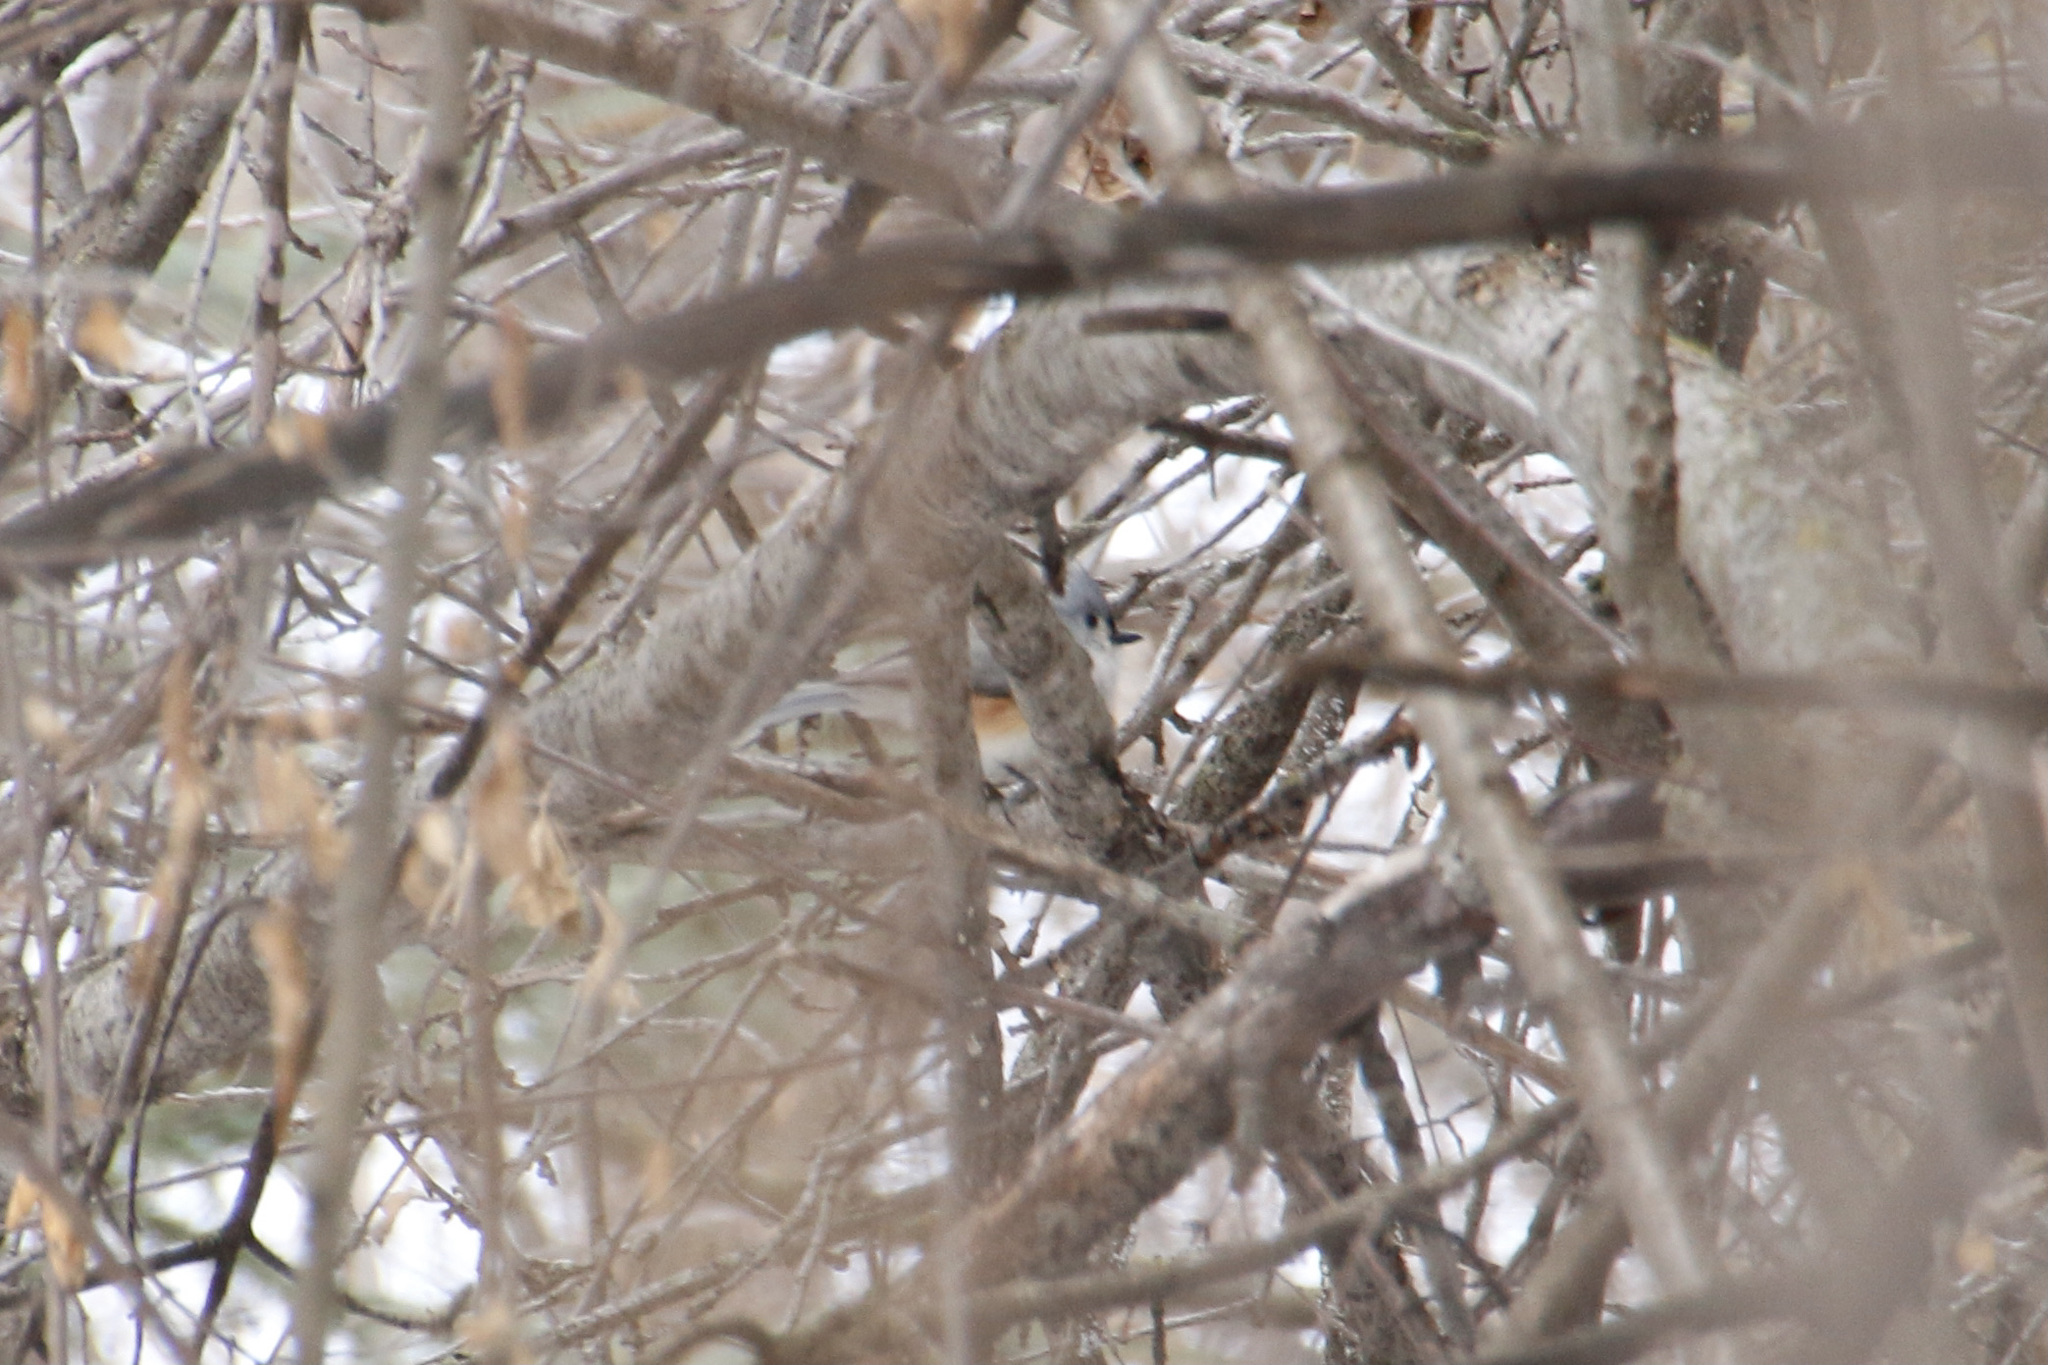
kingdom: Animalia
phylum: Chordata
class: Aves
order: Passeriformes
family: Paridae
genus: Baeolophus
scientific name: Baeolophus bicolor
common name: Tufted titmouse
